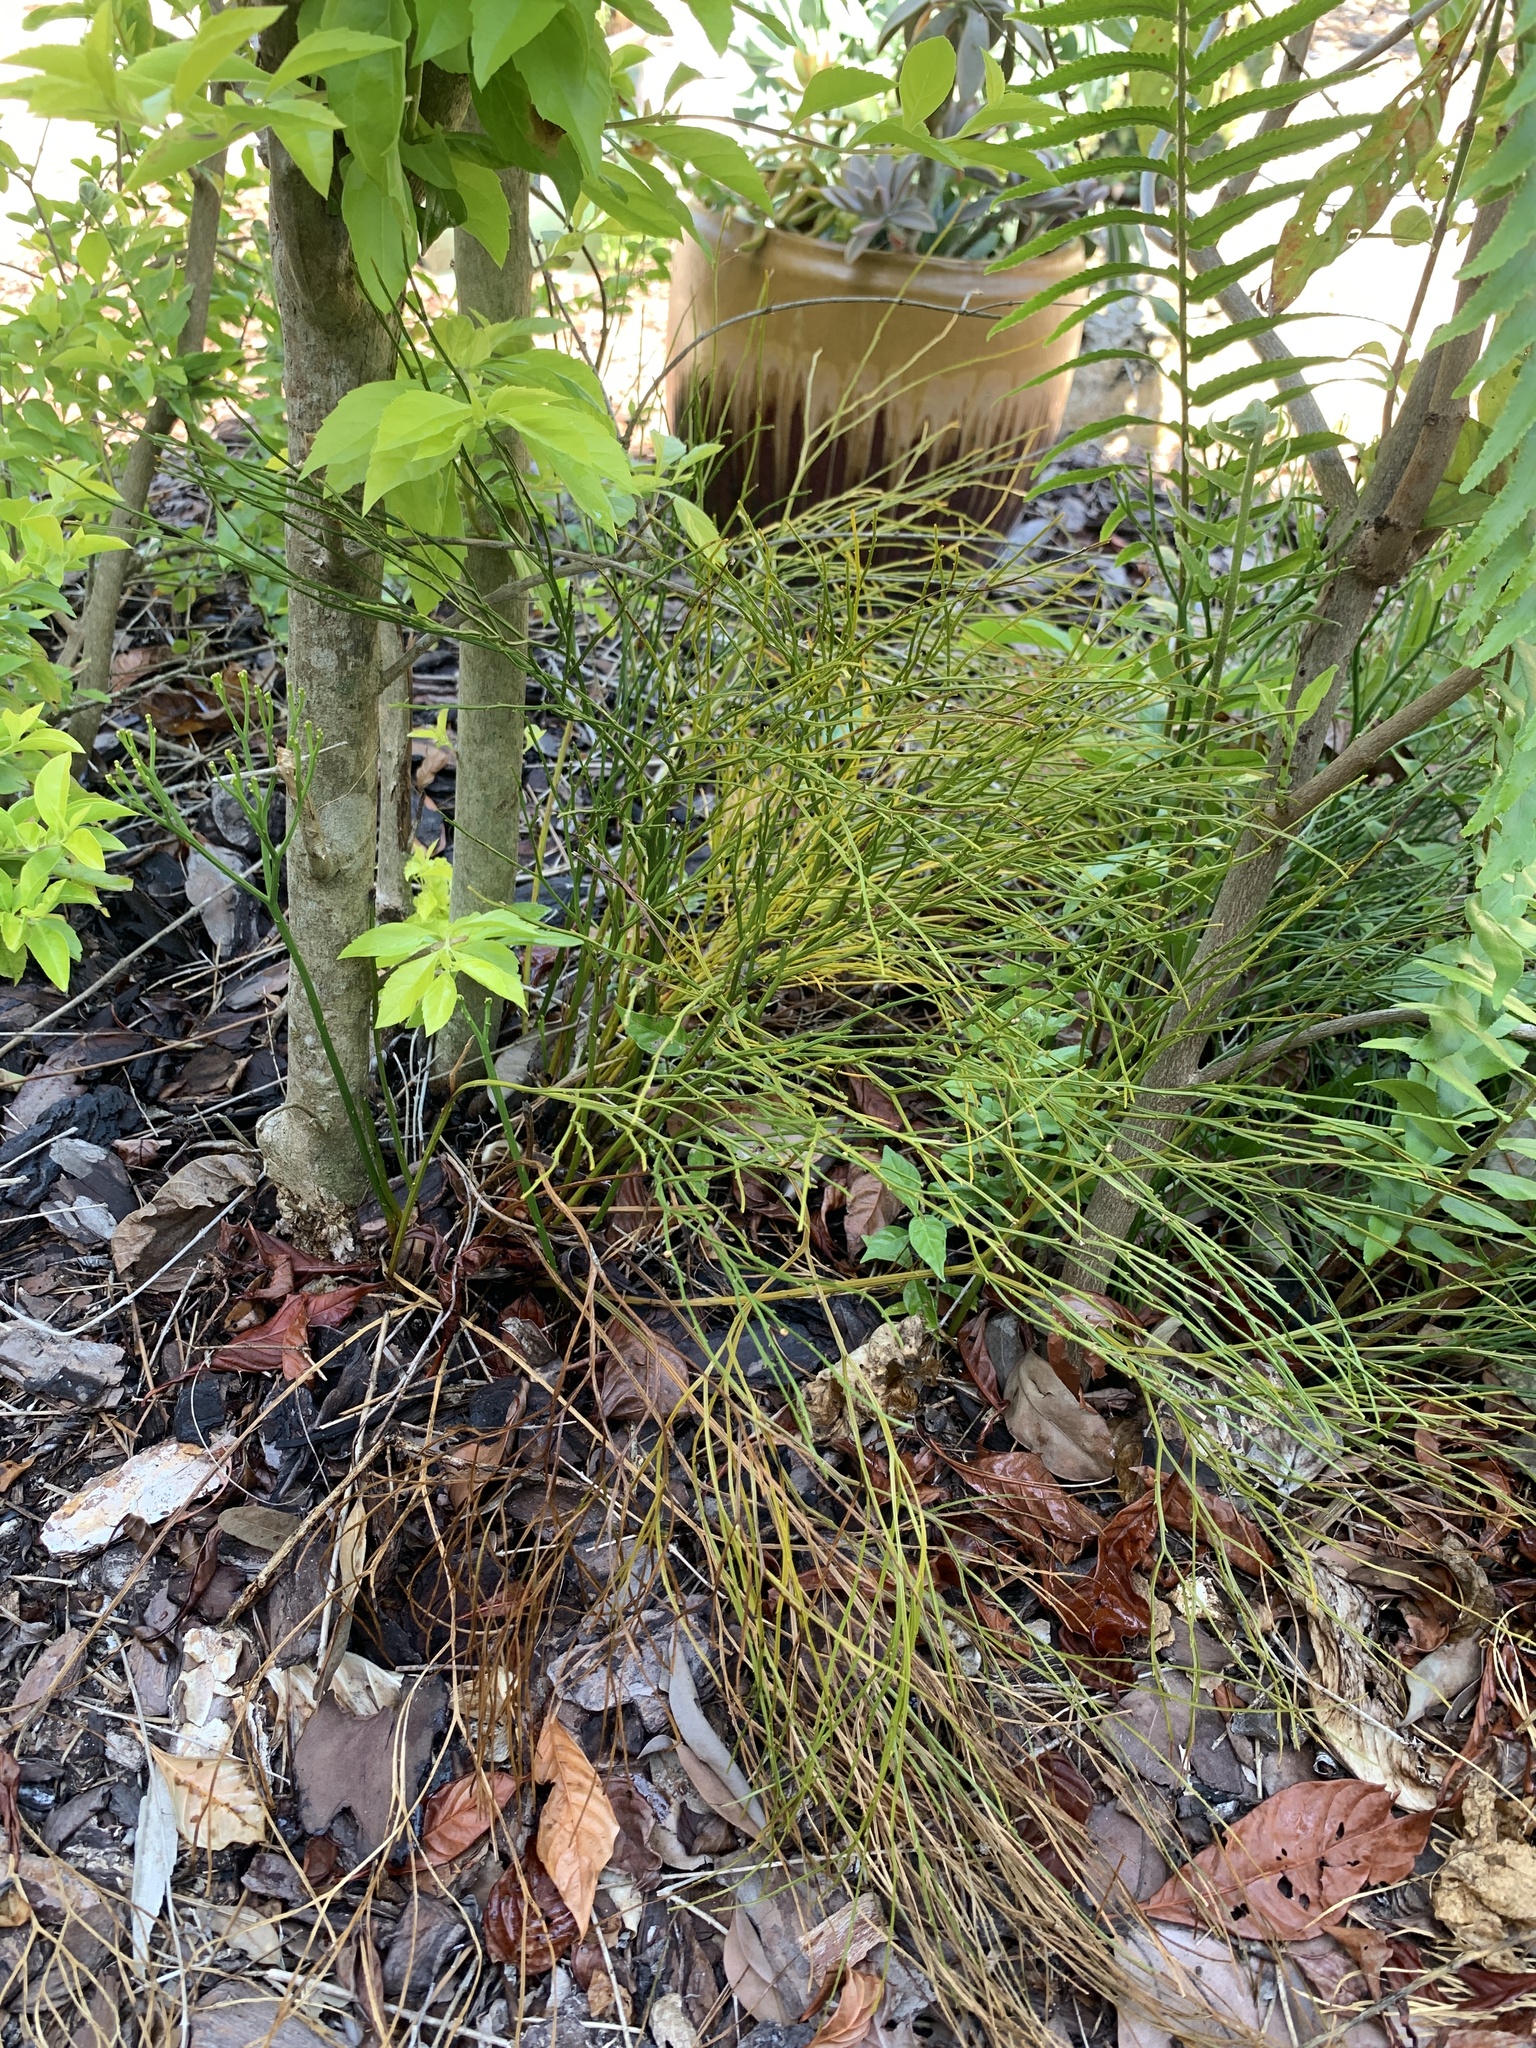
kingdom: Plantae
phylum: Tracheophyta
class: Polypodiopsida
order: Psilotales
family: Psilotaceae
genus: Psilotum
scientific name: Psilotum nudum
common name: Skeleton fork fern
